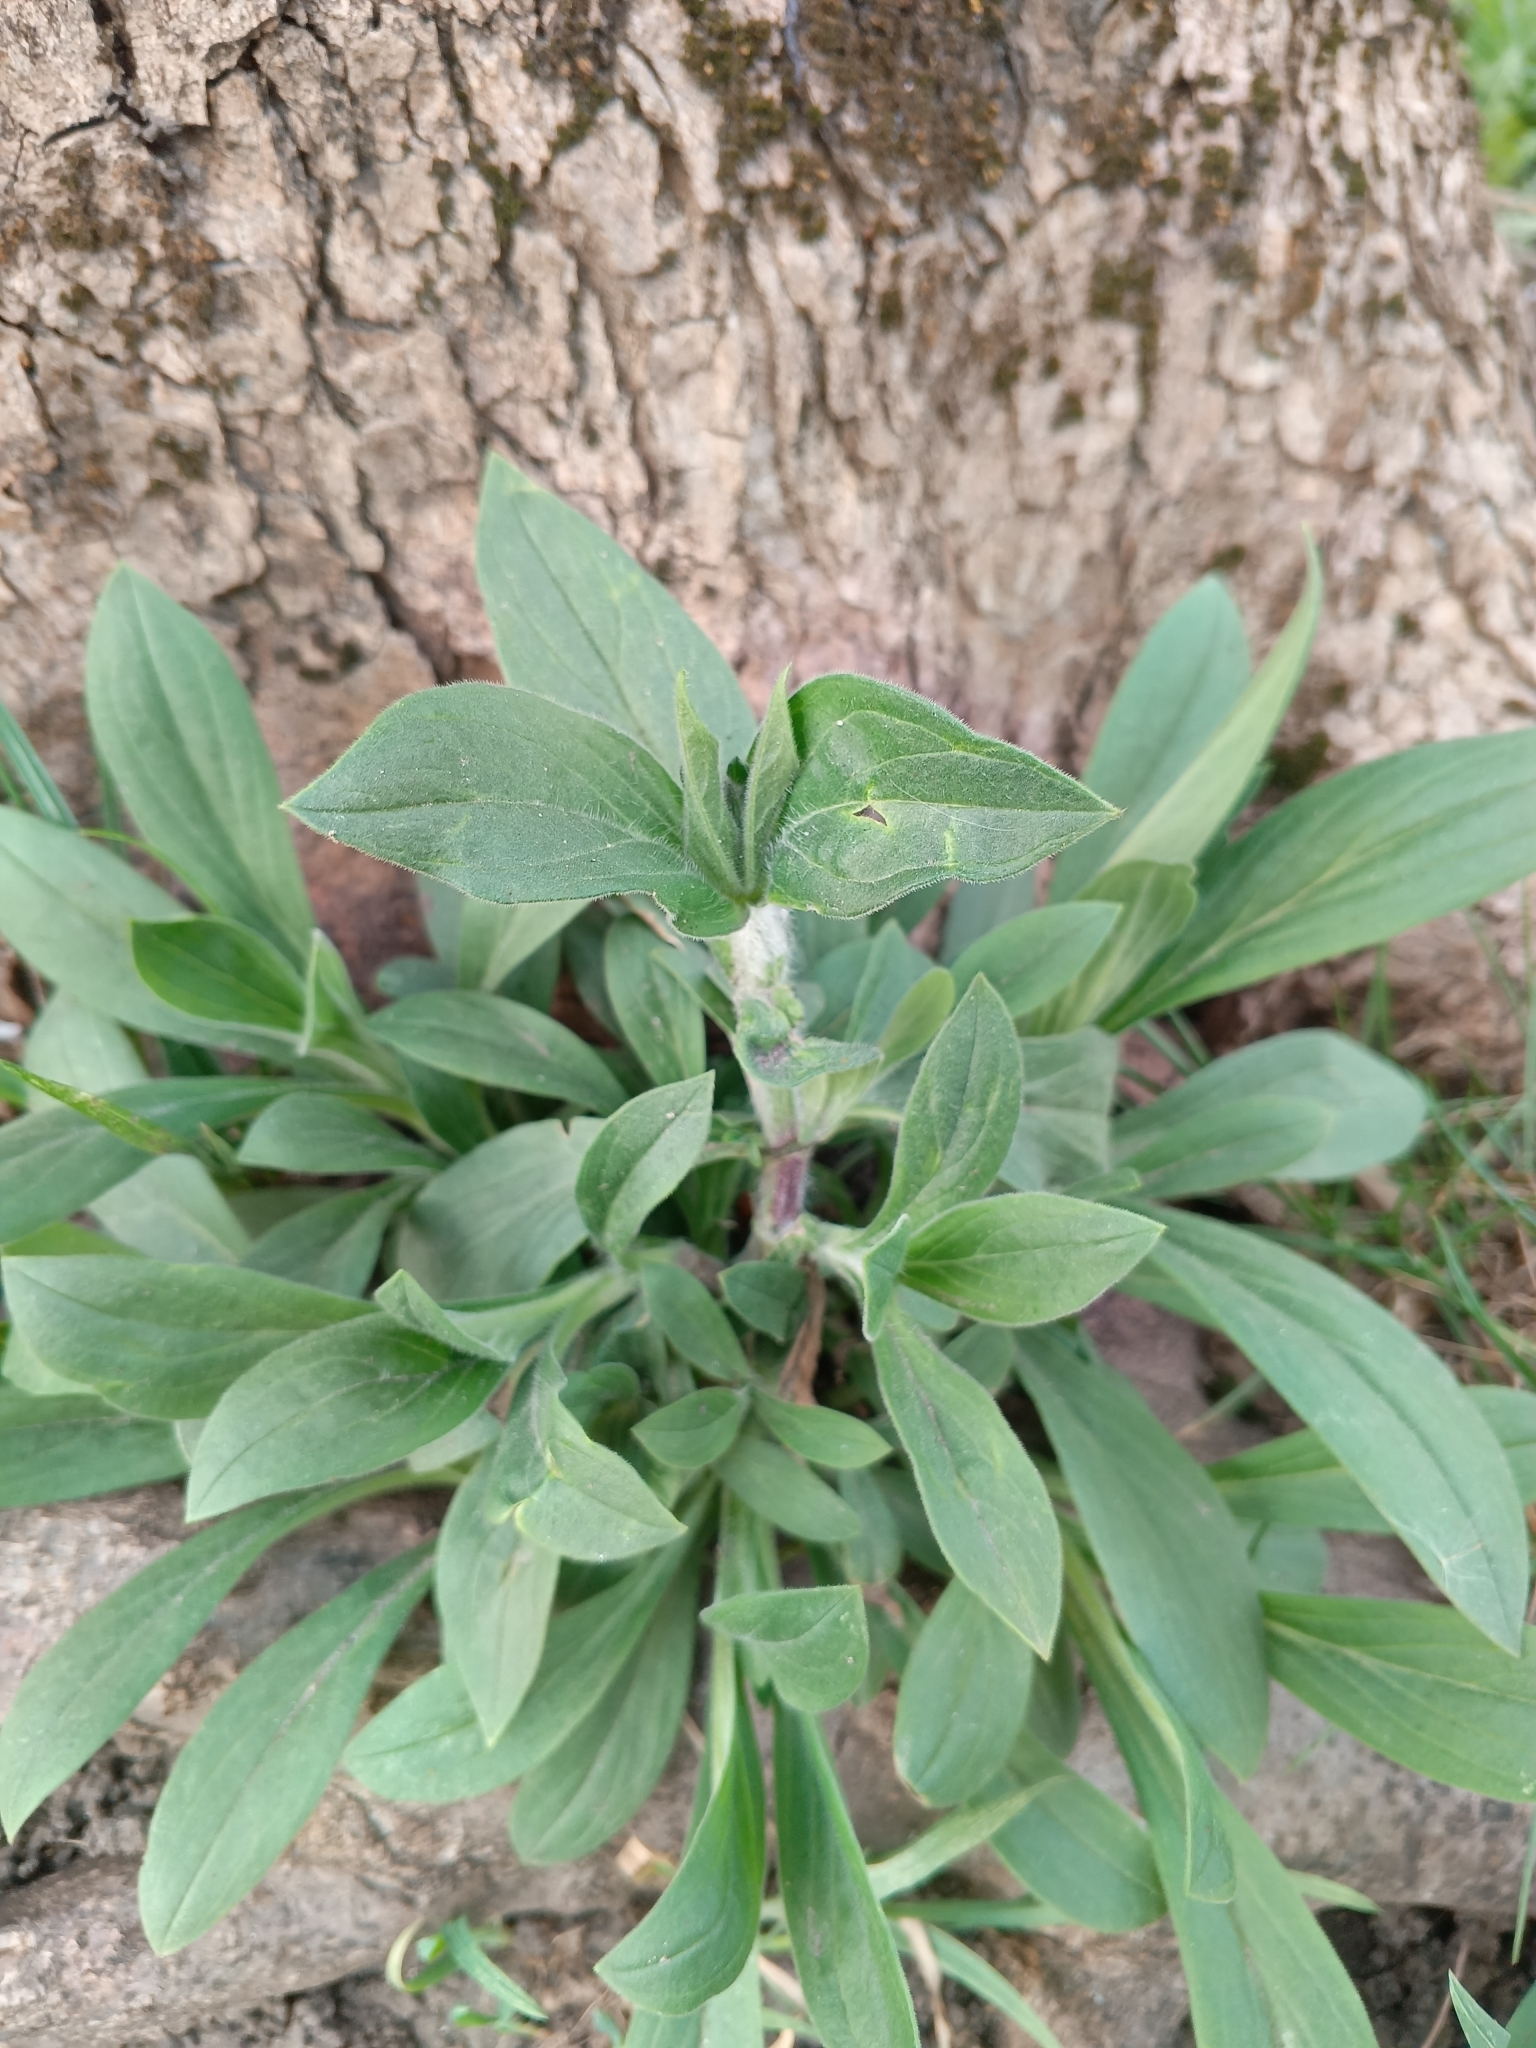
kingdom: Plantae
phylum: Tracheophyta
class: Magnoliopsida
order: Caryophyllales
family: Caryophyllaceae
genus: Silene
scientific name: Silene latifolia
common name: White campion
